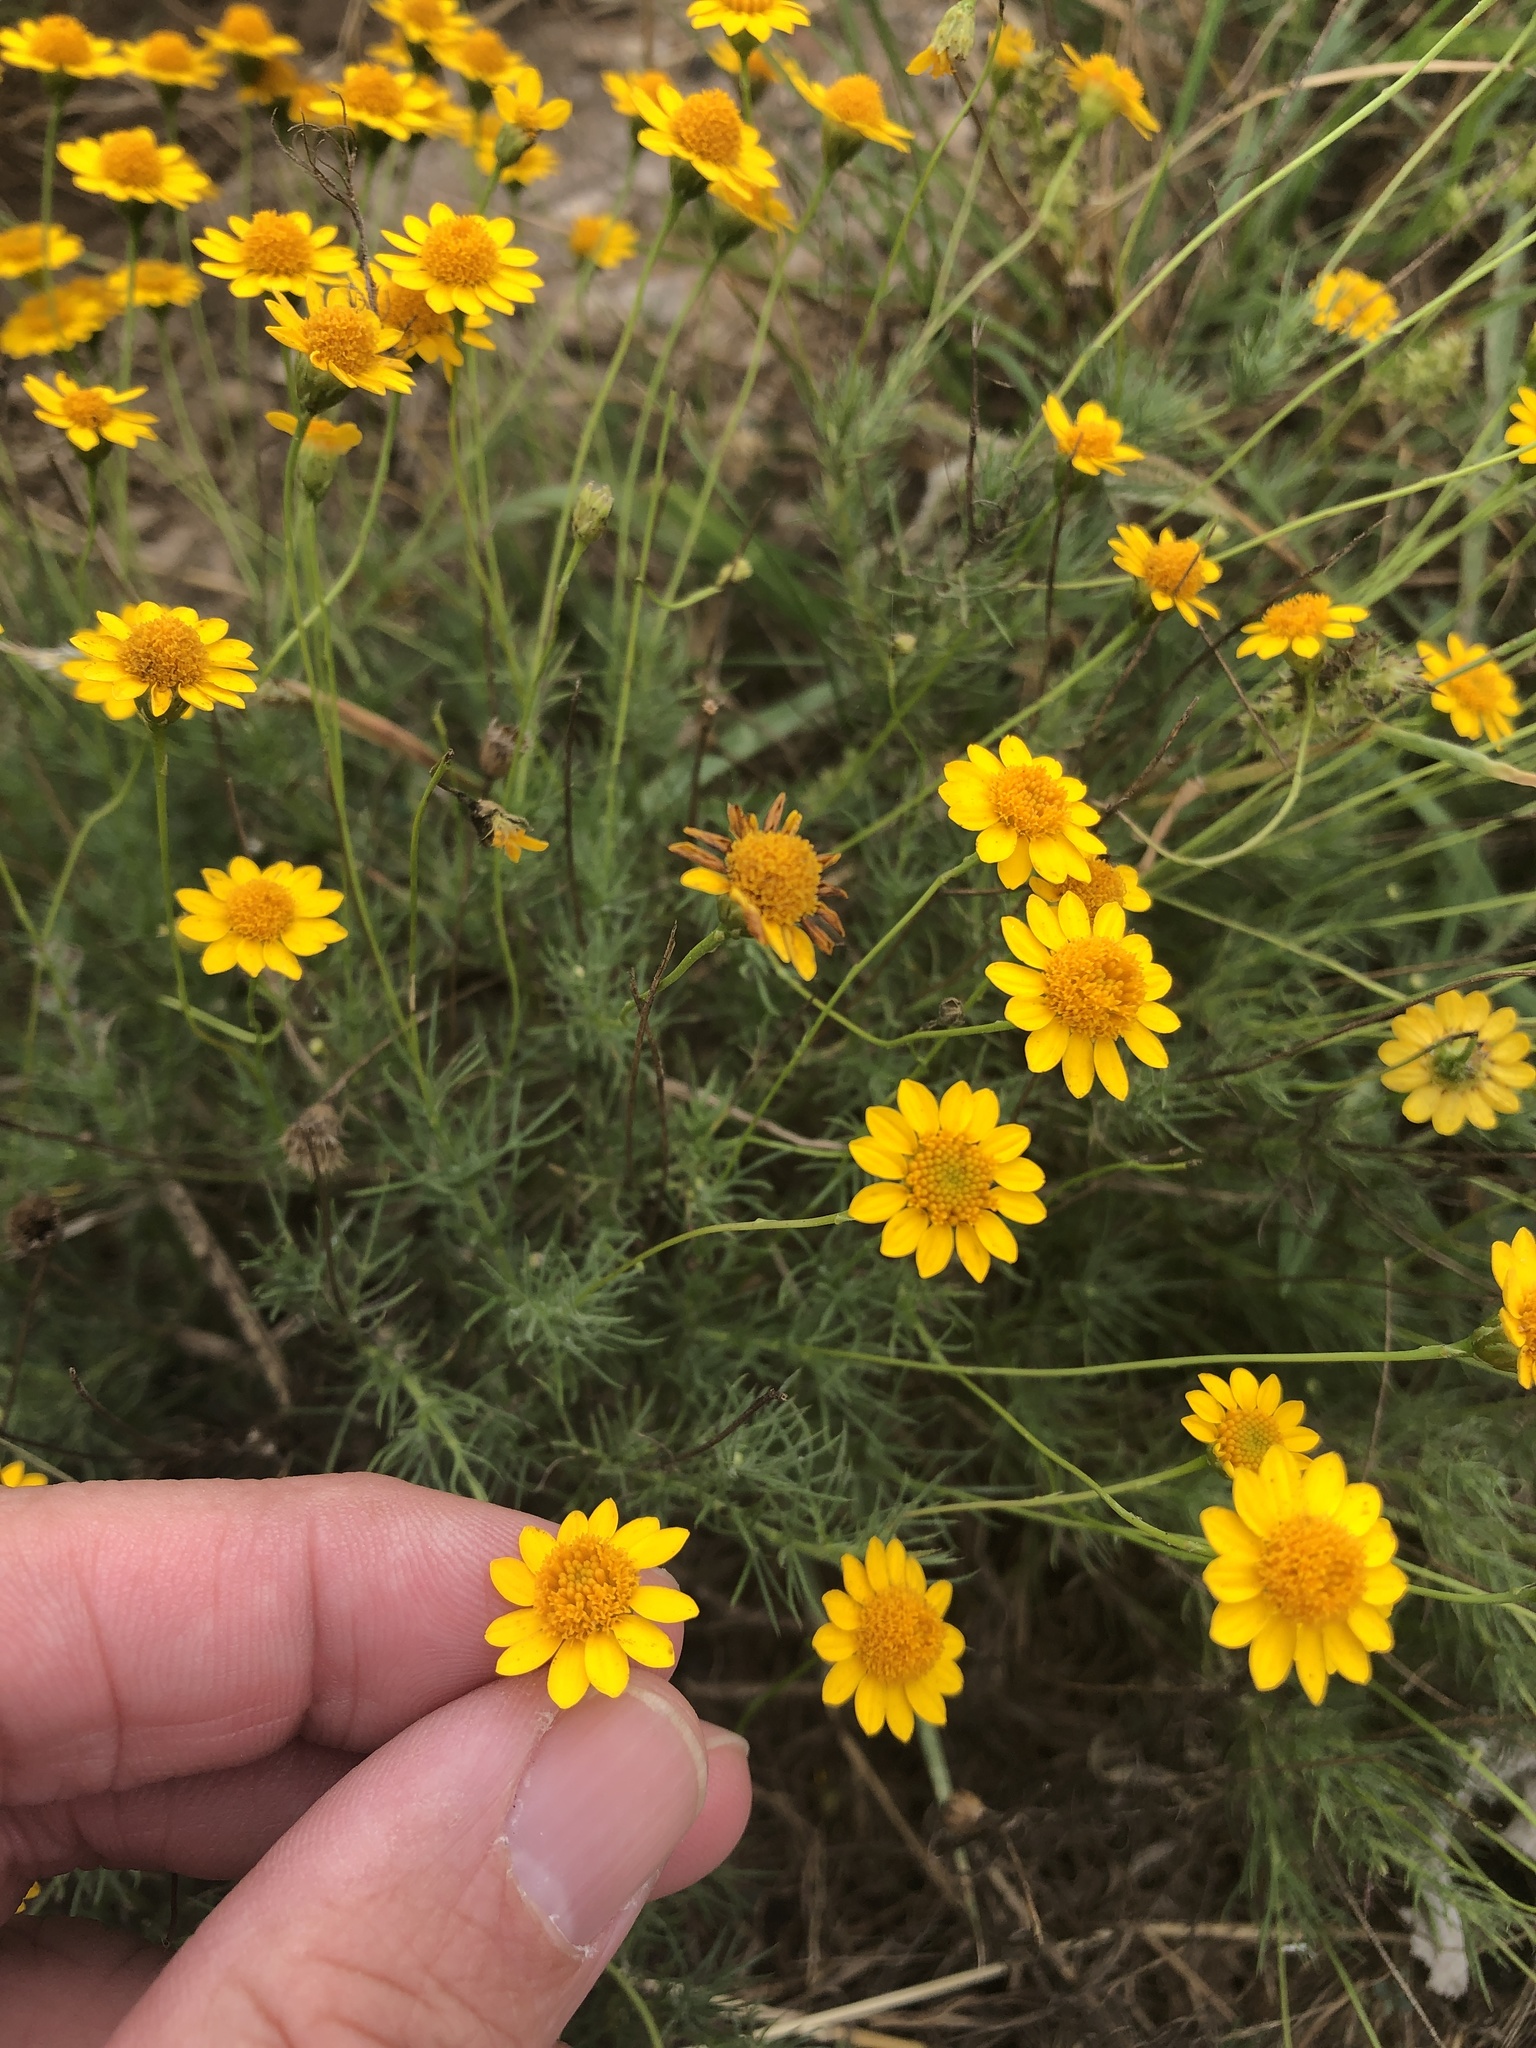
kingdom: Plantae
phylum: Tracheophyta
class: Magnoliopsida
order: Asterales
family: Asteraceae
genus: Thymophylla
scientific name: Thymophylla pentachaeta
